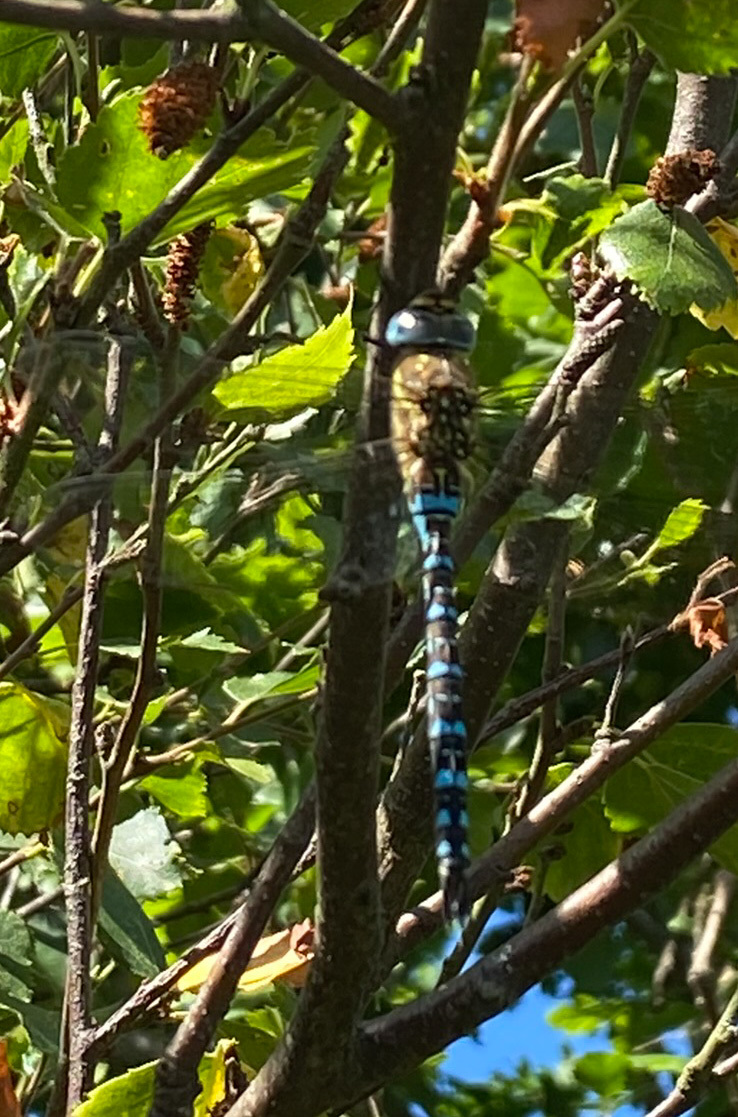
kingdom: Animalia
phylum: Arthropoda
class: Insecta
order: Odonata
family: Aeshnidae
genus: Aeshna
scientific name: Aeshna mixta
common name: Migrant hawker
